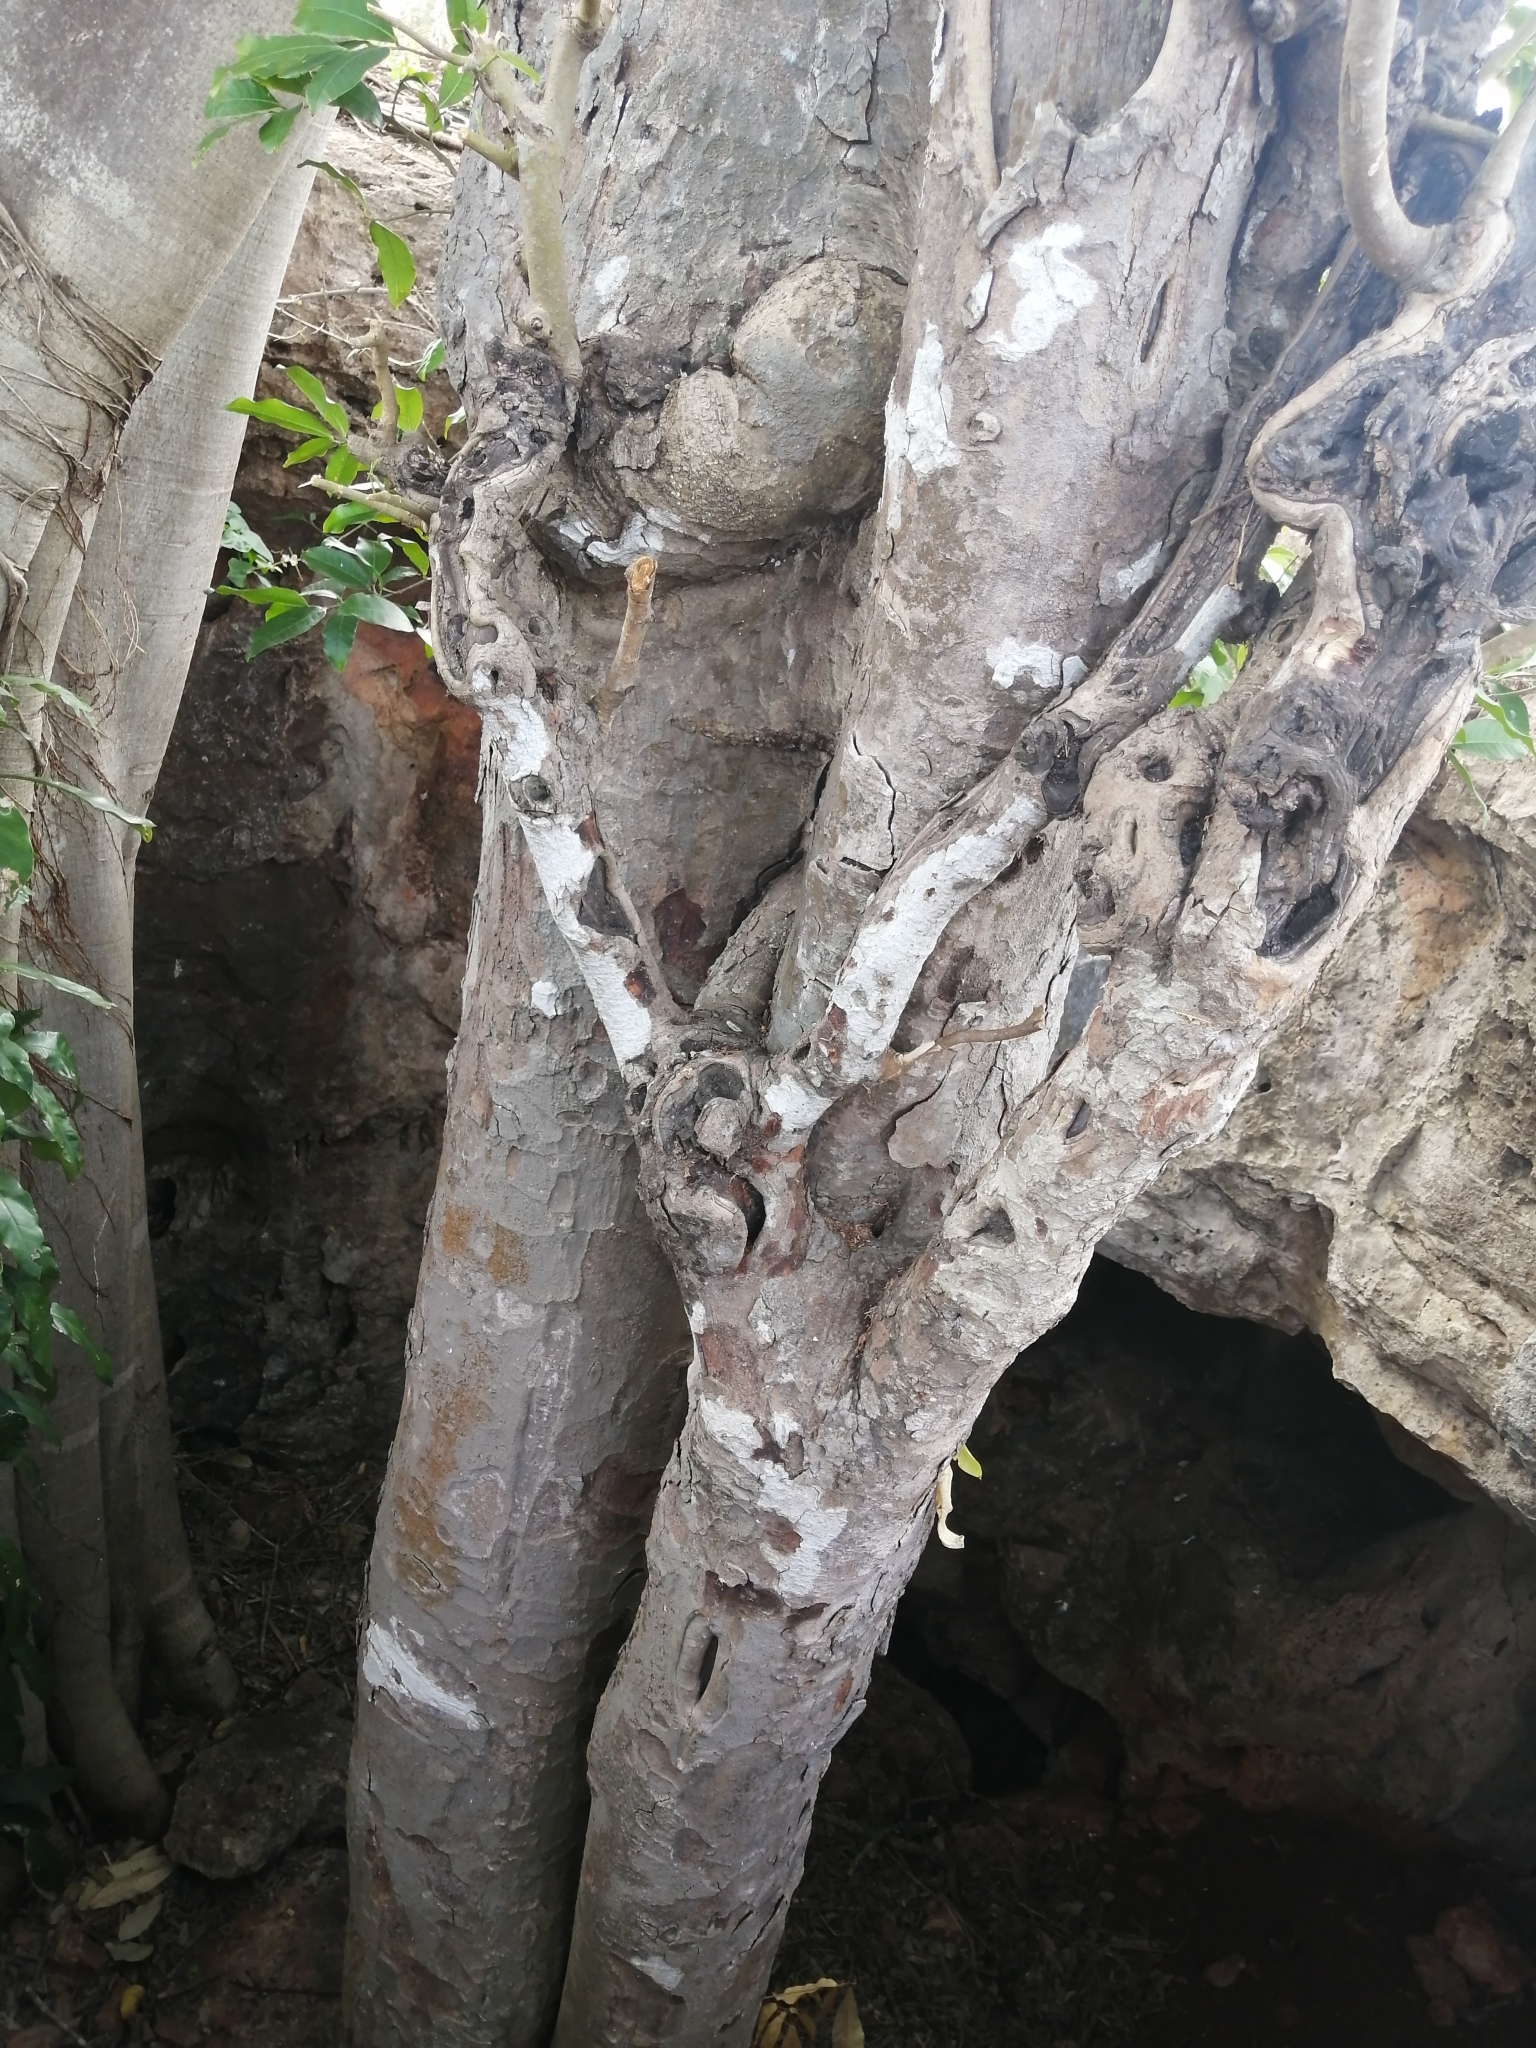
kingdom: Plantae
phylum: Tracheophyta
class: Magnoliopsida
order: Rosales
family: Moraceae
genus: Brosimum
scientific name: Brosimum alicastrum
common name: Breadnut
